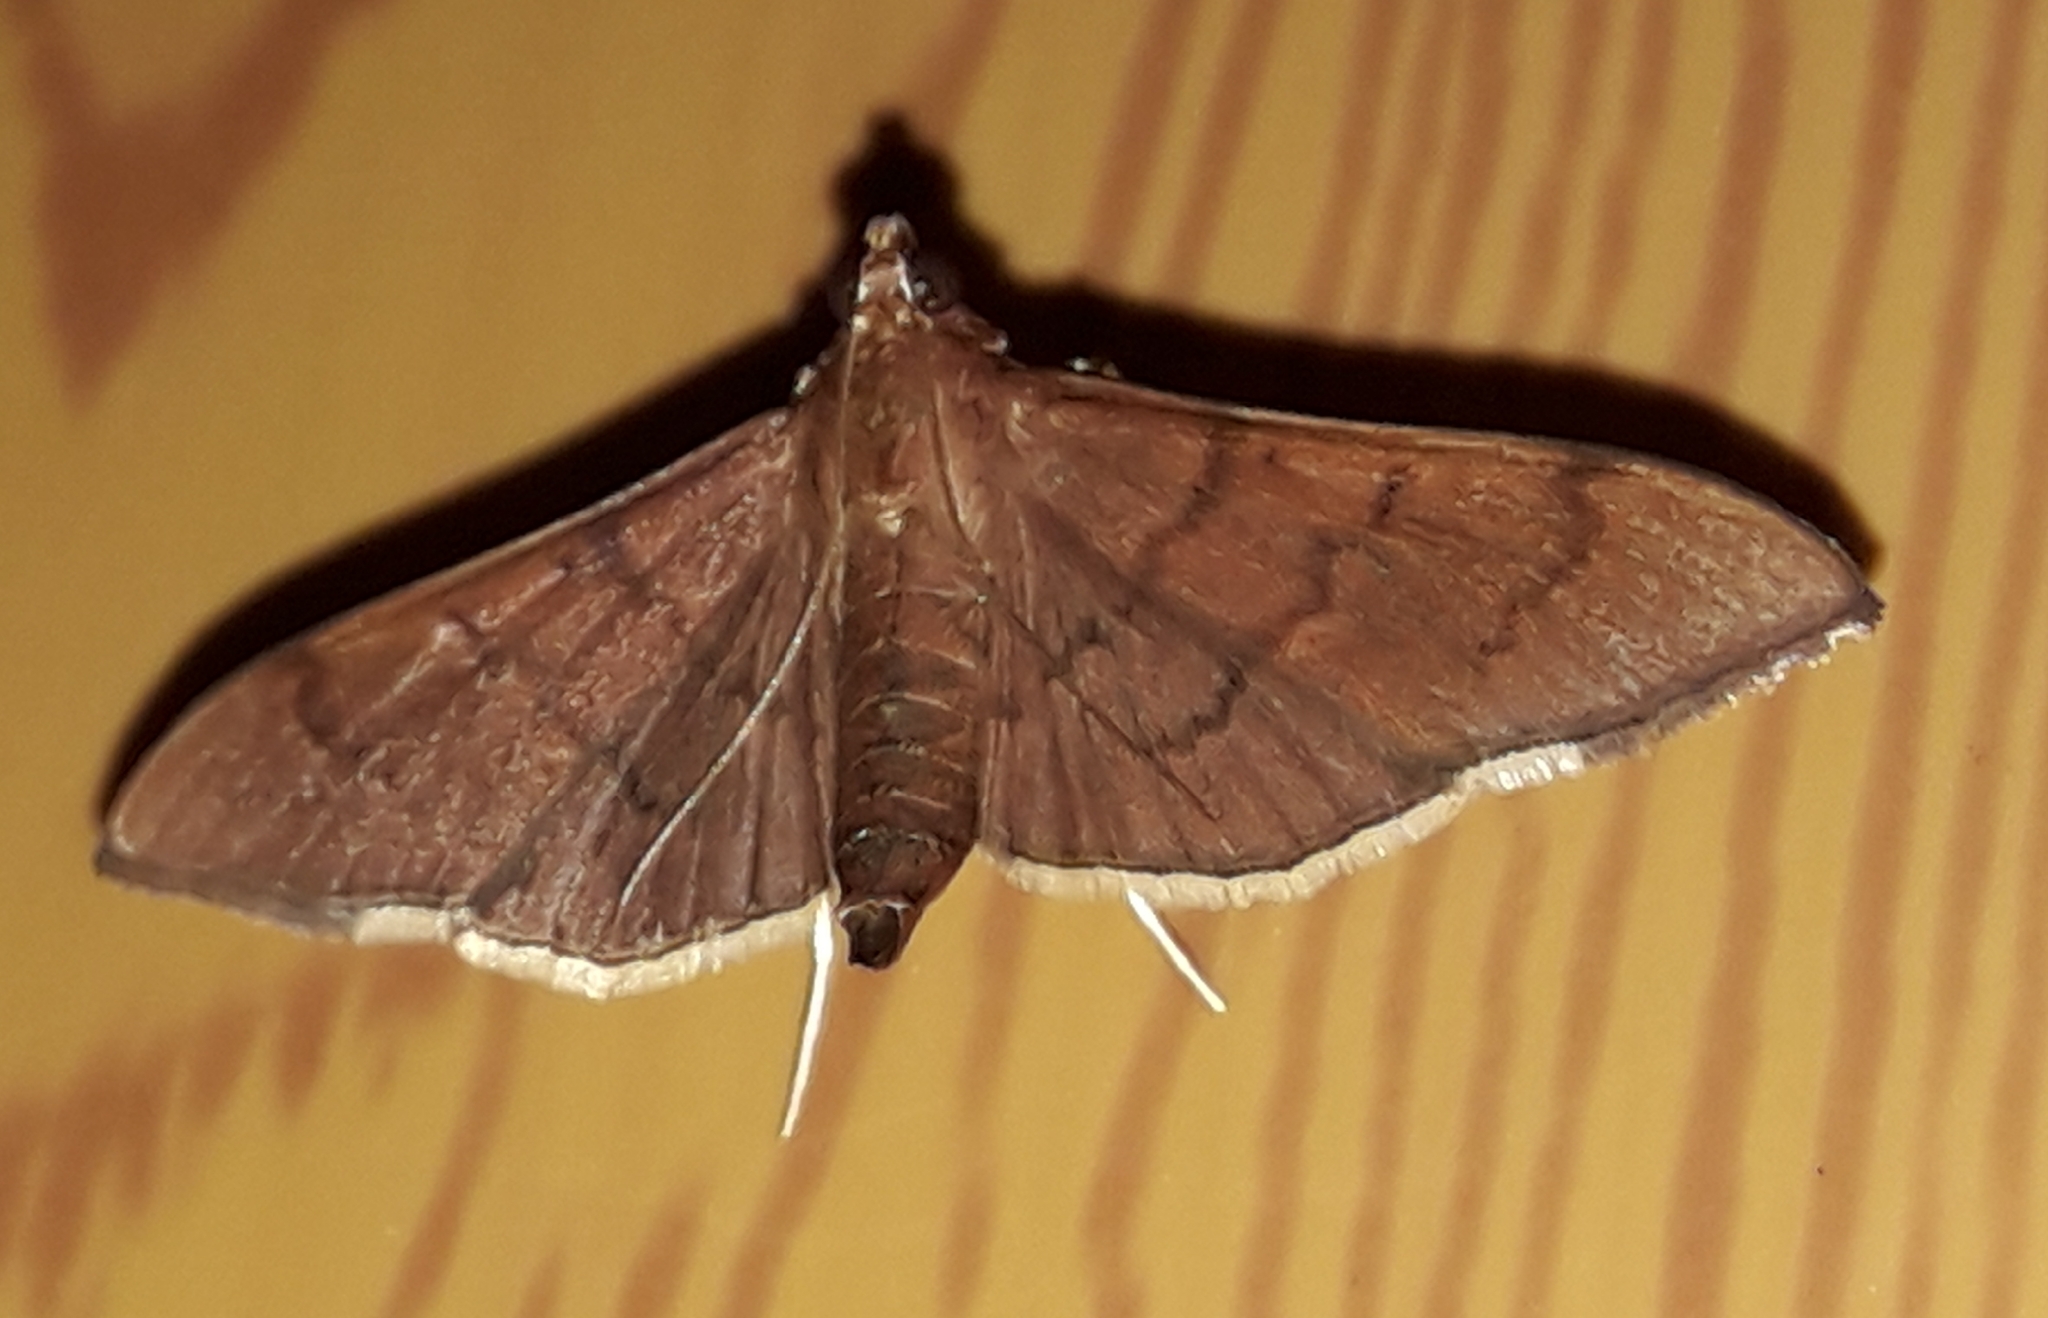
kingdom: Animalia
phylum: Arthropoda
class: Insecta
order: Lepidoptera
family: Crambidae
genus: Omiodes
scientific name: Omiodes humeralis
